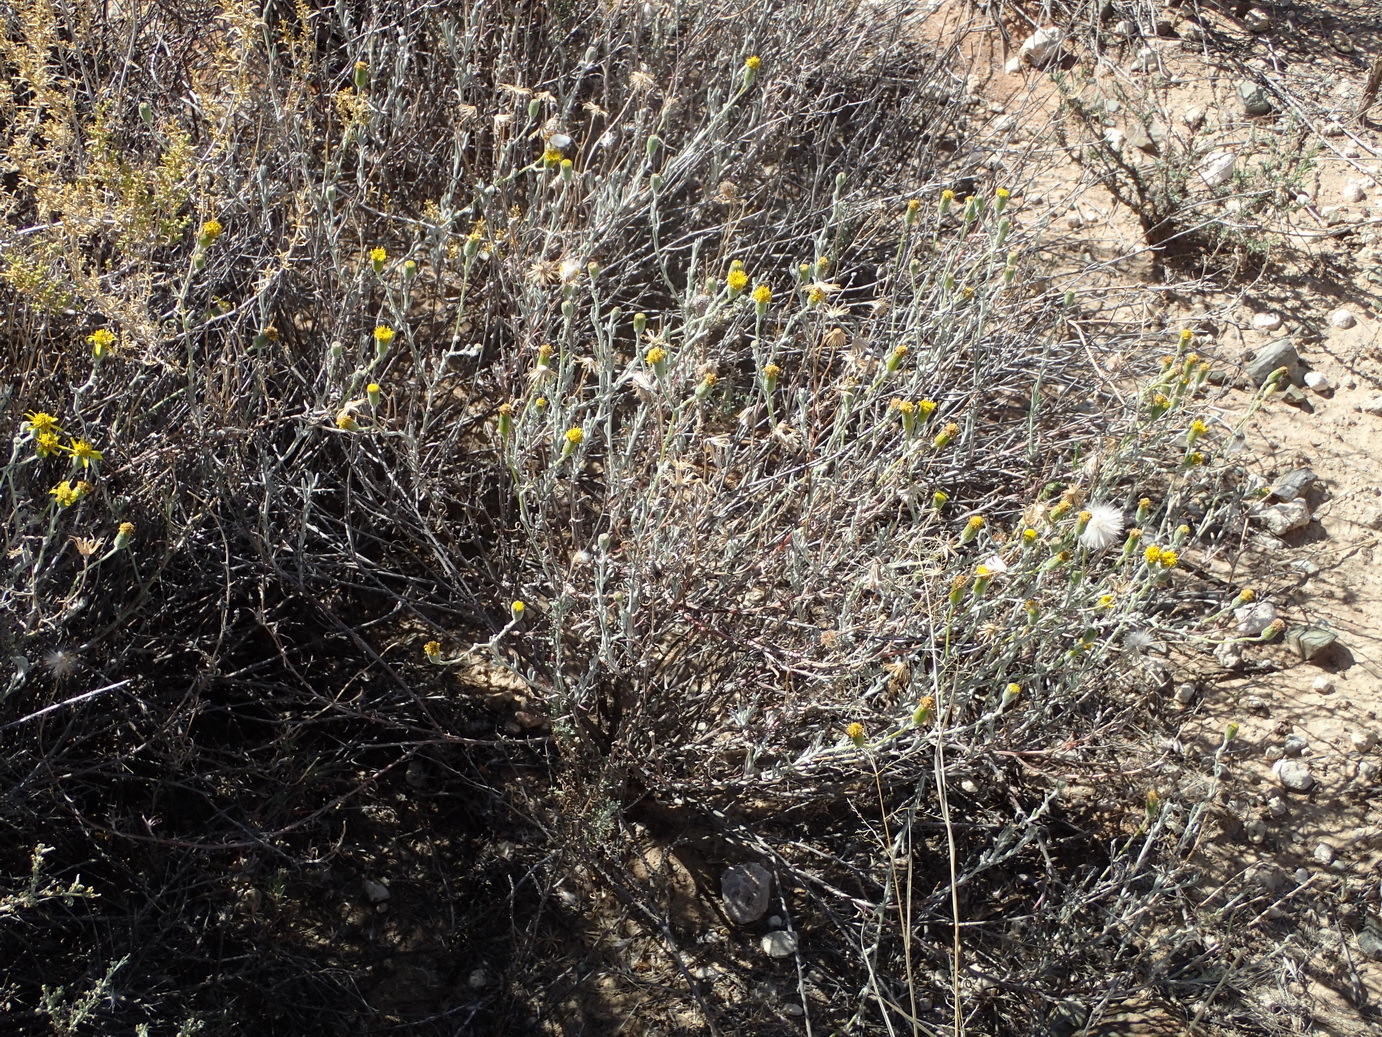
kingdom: Plantae
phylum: Tracheophyta
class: Magnoliopsida
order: Asterales
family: Asteraceae
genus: Senecio
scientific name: Senecio niveus
